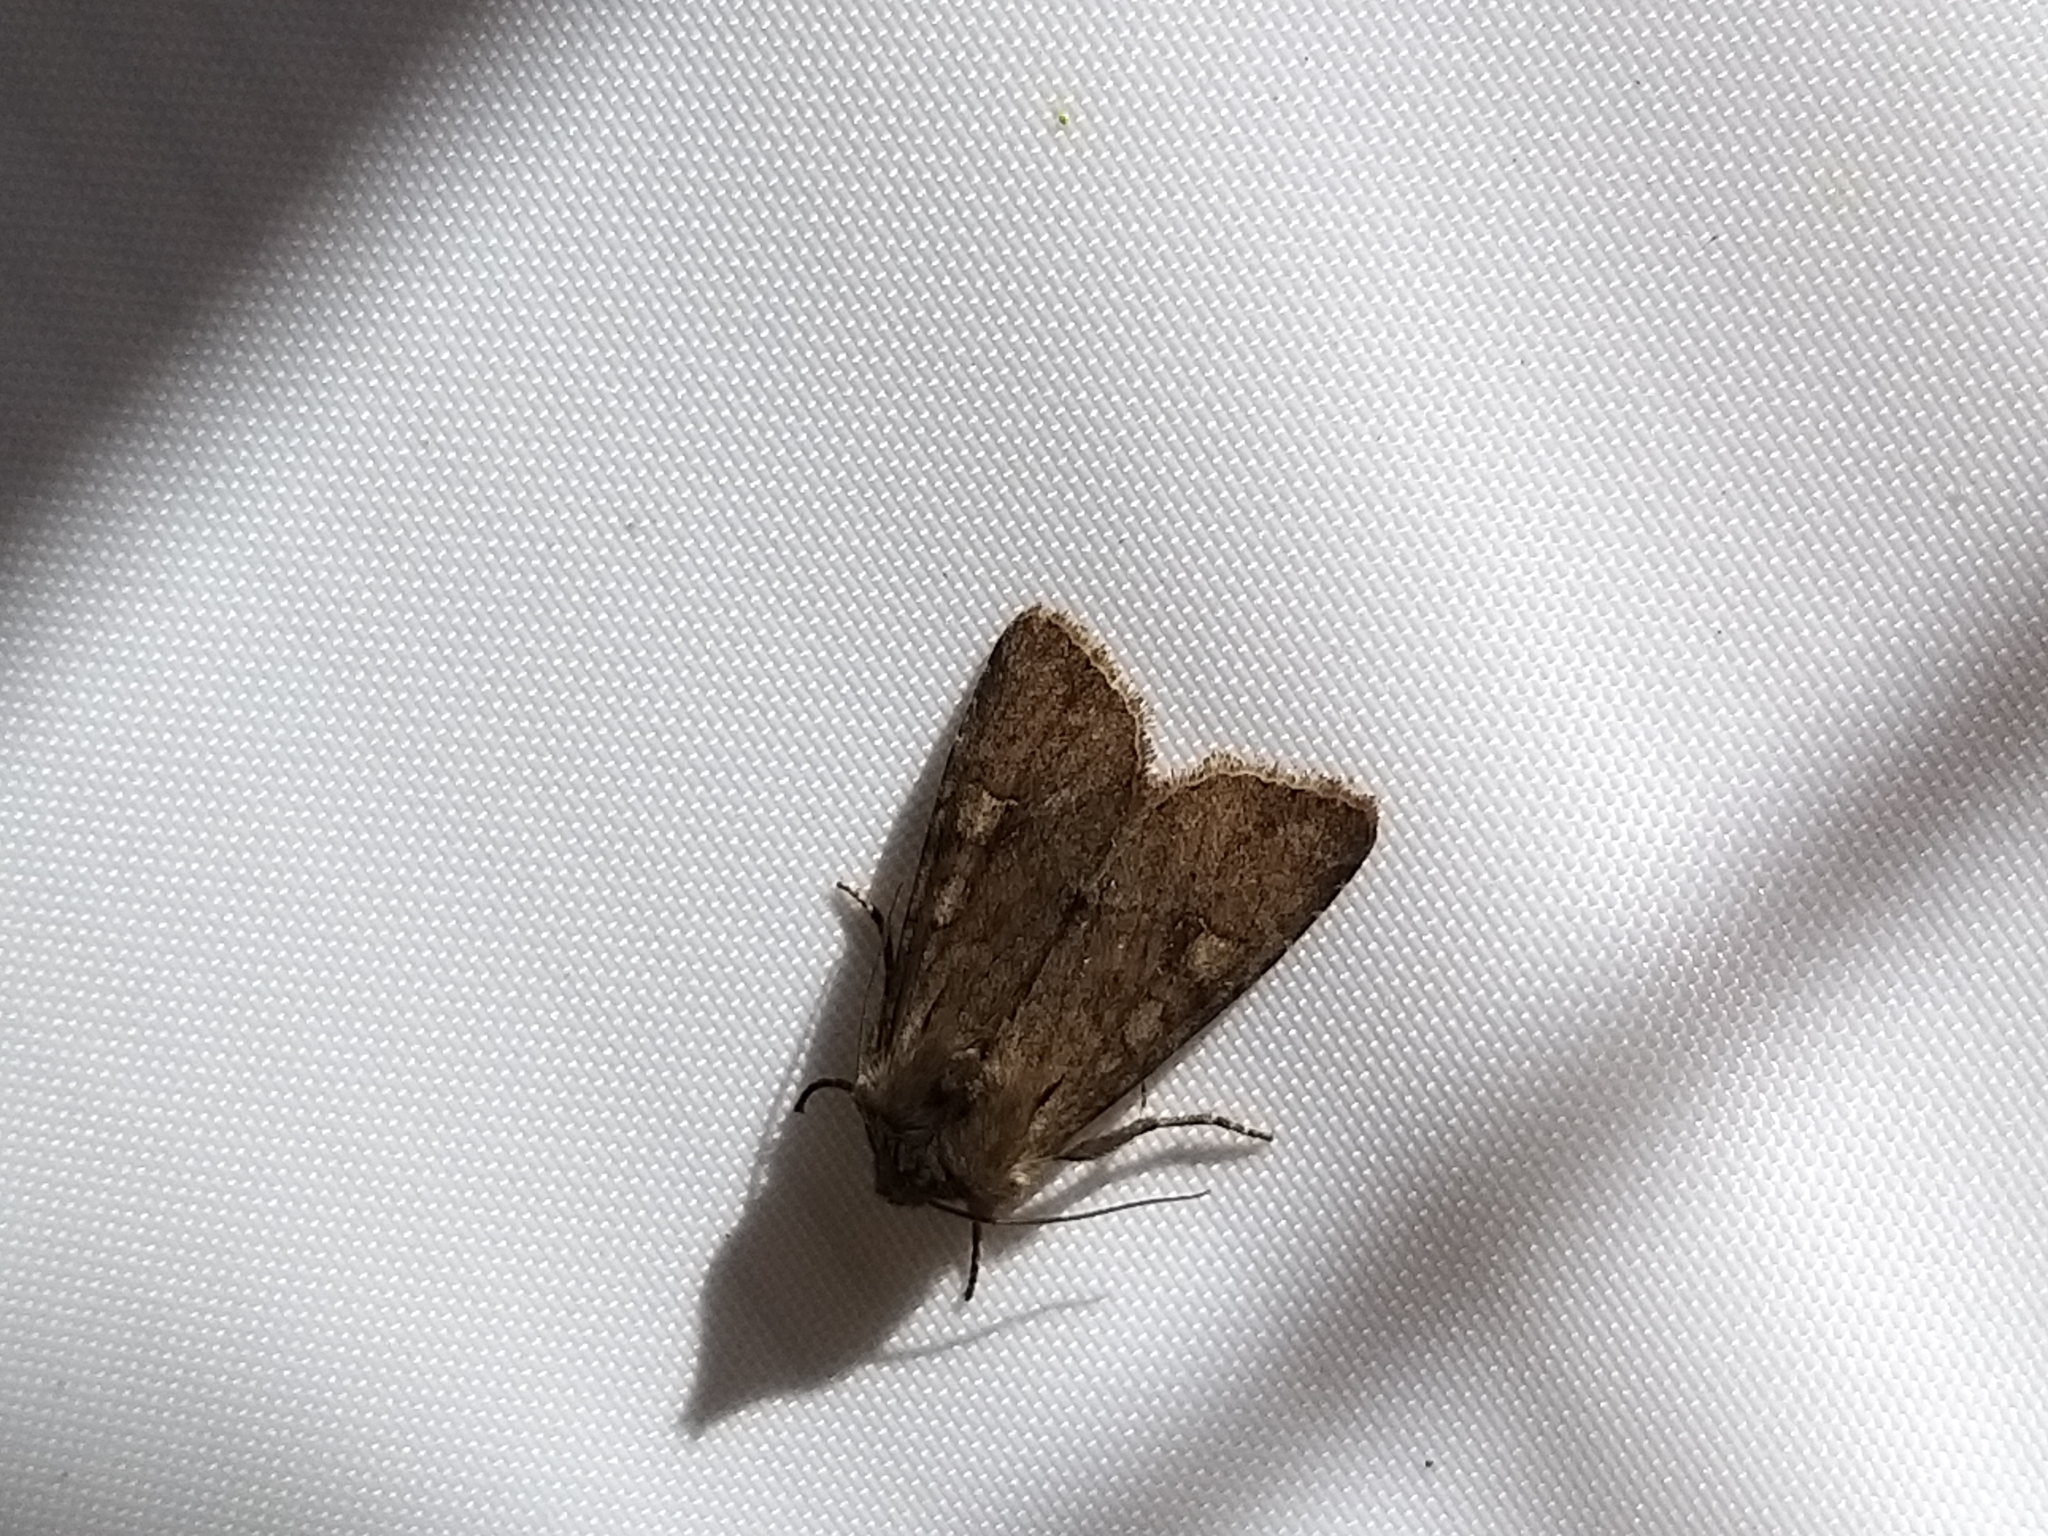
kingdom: Animalia
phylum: Arthropoda
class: Insecta
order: Lepidoptera
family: Noctuidae
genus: Apamea
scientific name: Apamea sordens
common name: Rustic shoulder-knot
